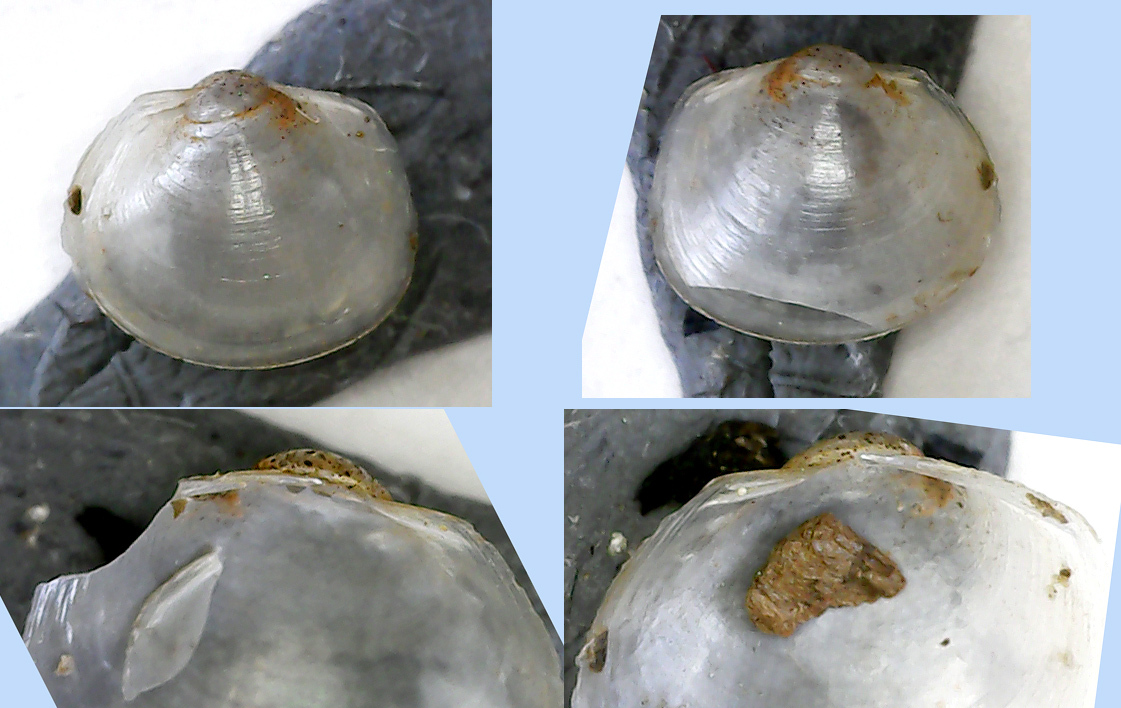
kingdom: Animalia
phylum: Mollusca
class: Bivalvia
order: Sphaeriida
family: Sphaeriidae
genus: Musculium
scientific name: Musculium lacustre
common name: Lake fingernailclam
